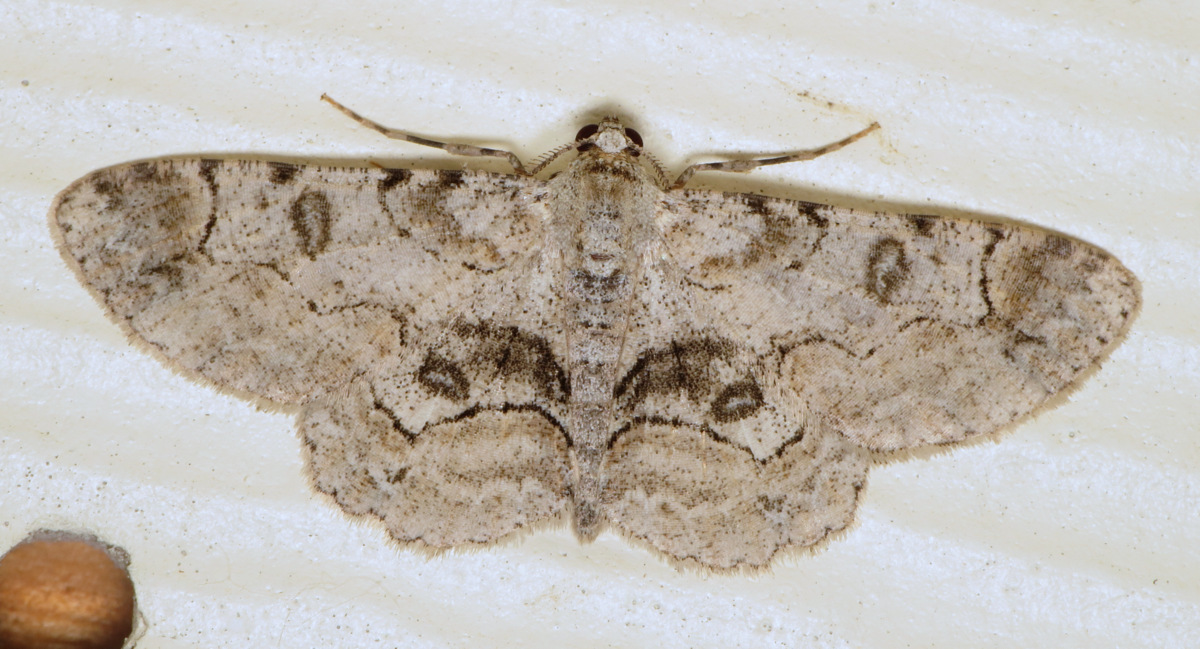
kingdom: Animalia
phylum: Arthropoda
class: Insecta
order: Lepidoptera
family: Geometridae
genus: Iridopsis
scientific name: Iridopsis larvaria
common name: Bent-line gray
